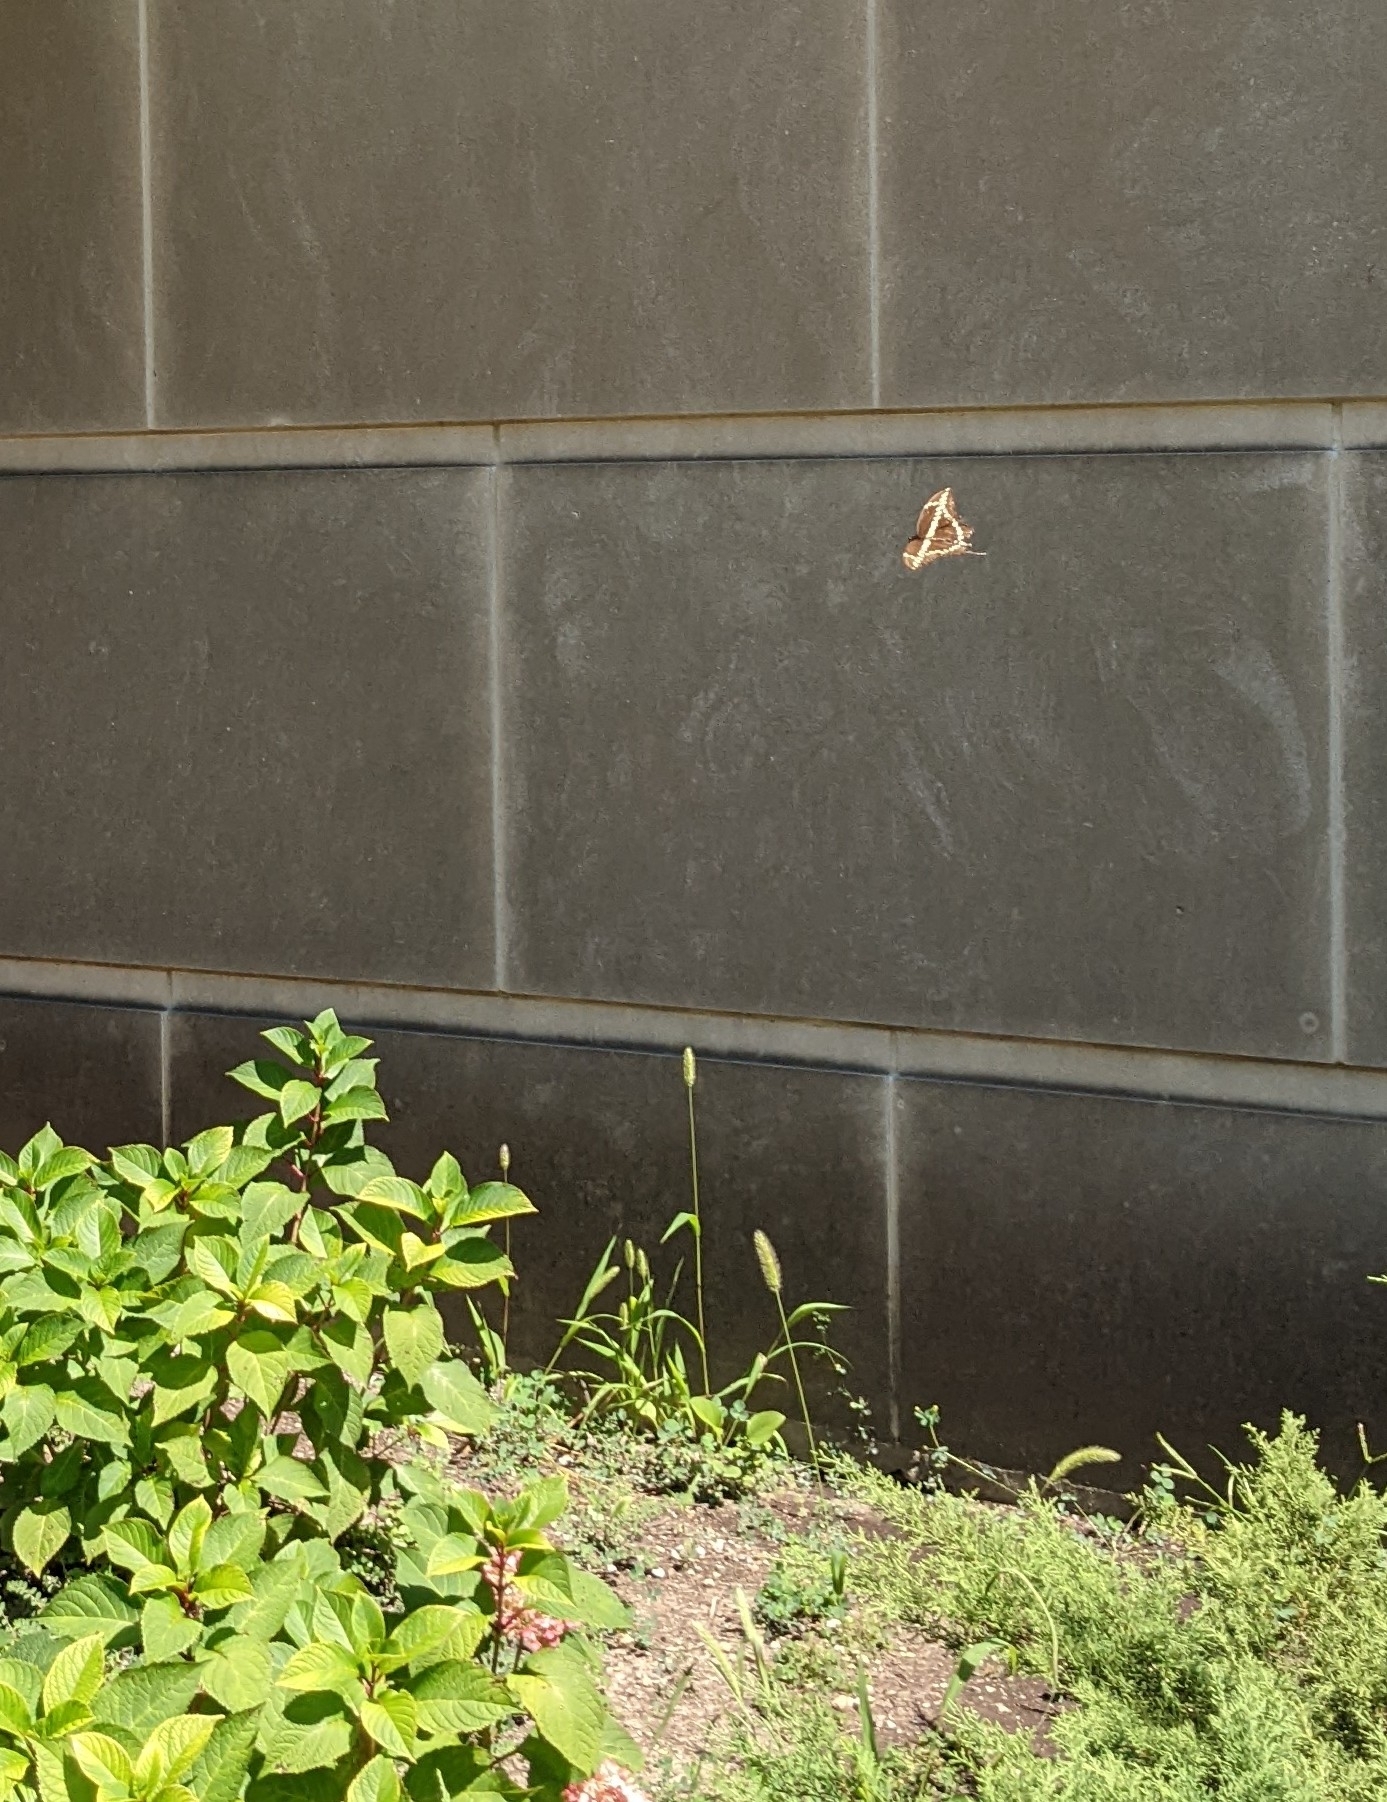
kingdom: Animalia
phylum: Arthropoda
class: Insecta
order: Lepidoptera
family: Papilionidae
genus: Papilio
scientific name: Papilio cresphontes
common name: Giant swallowtail
